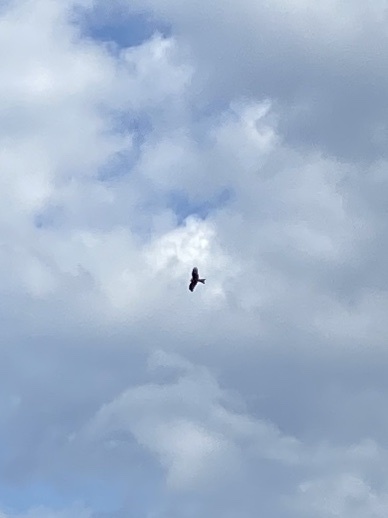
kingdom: Animalia
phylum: Chordata
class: Aves
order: Accipitriformes
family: Accipitridae
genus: Milvus
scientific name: Milvus milvus
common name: Red kite
